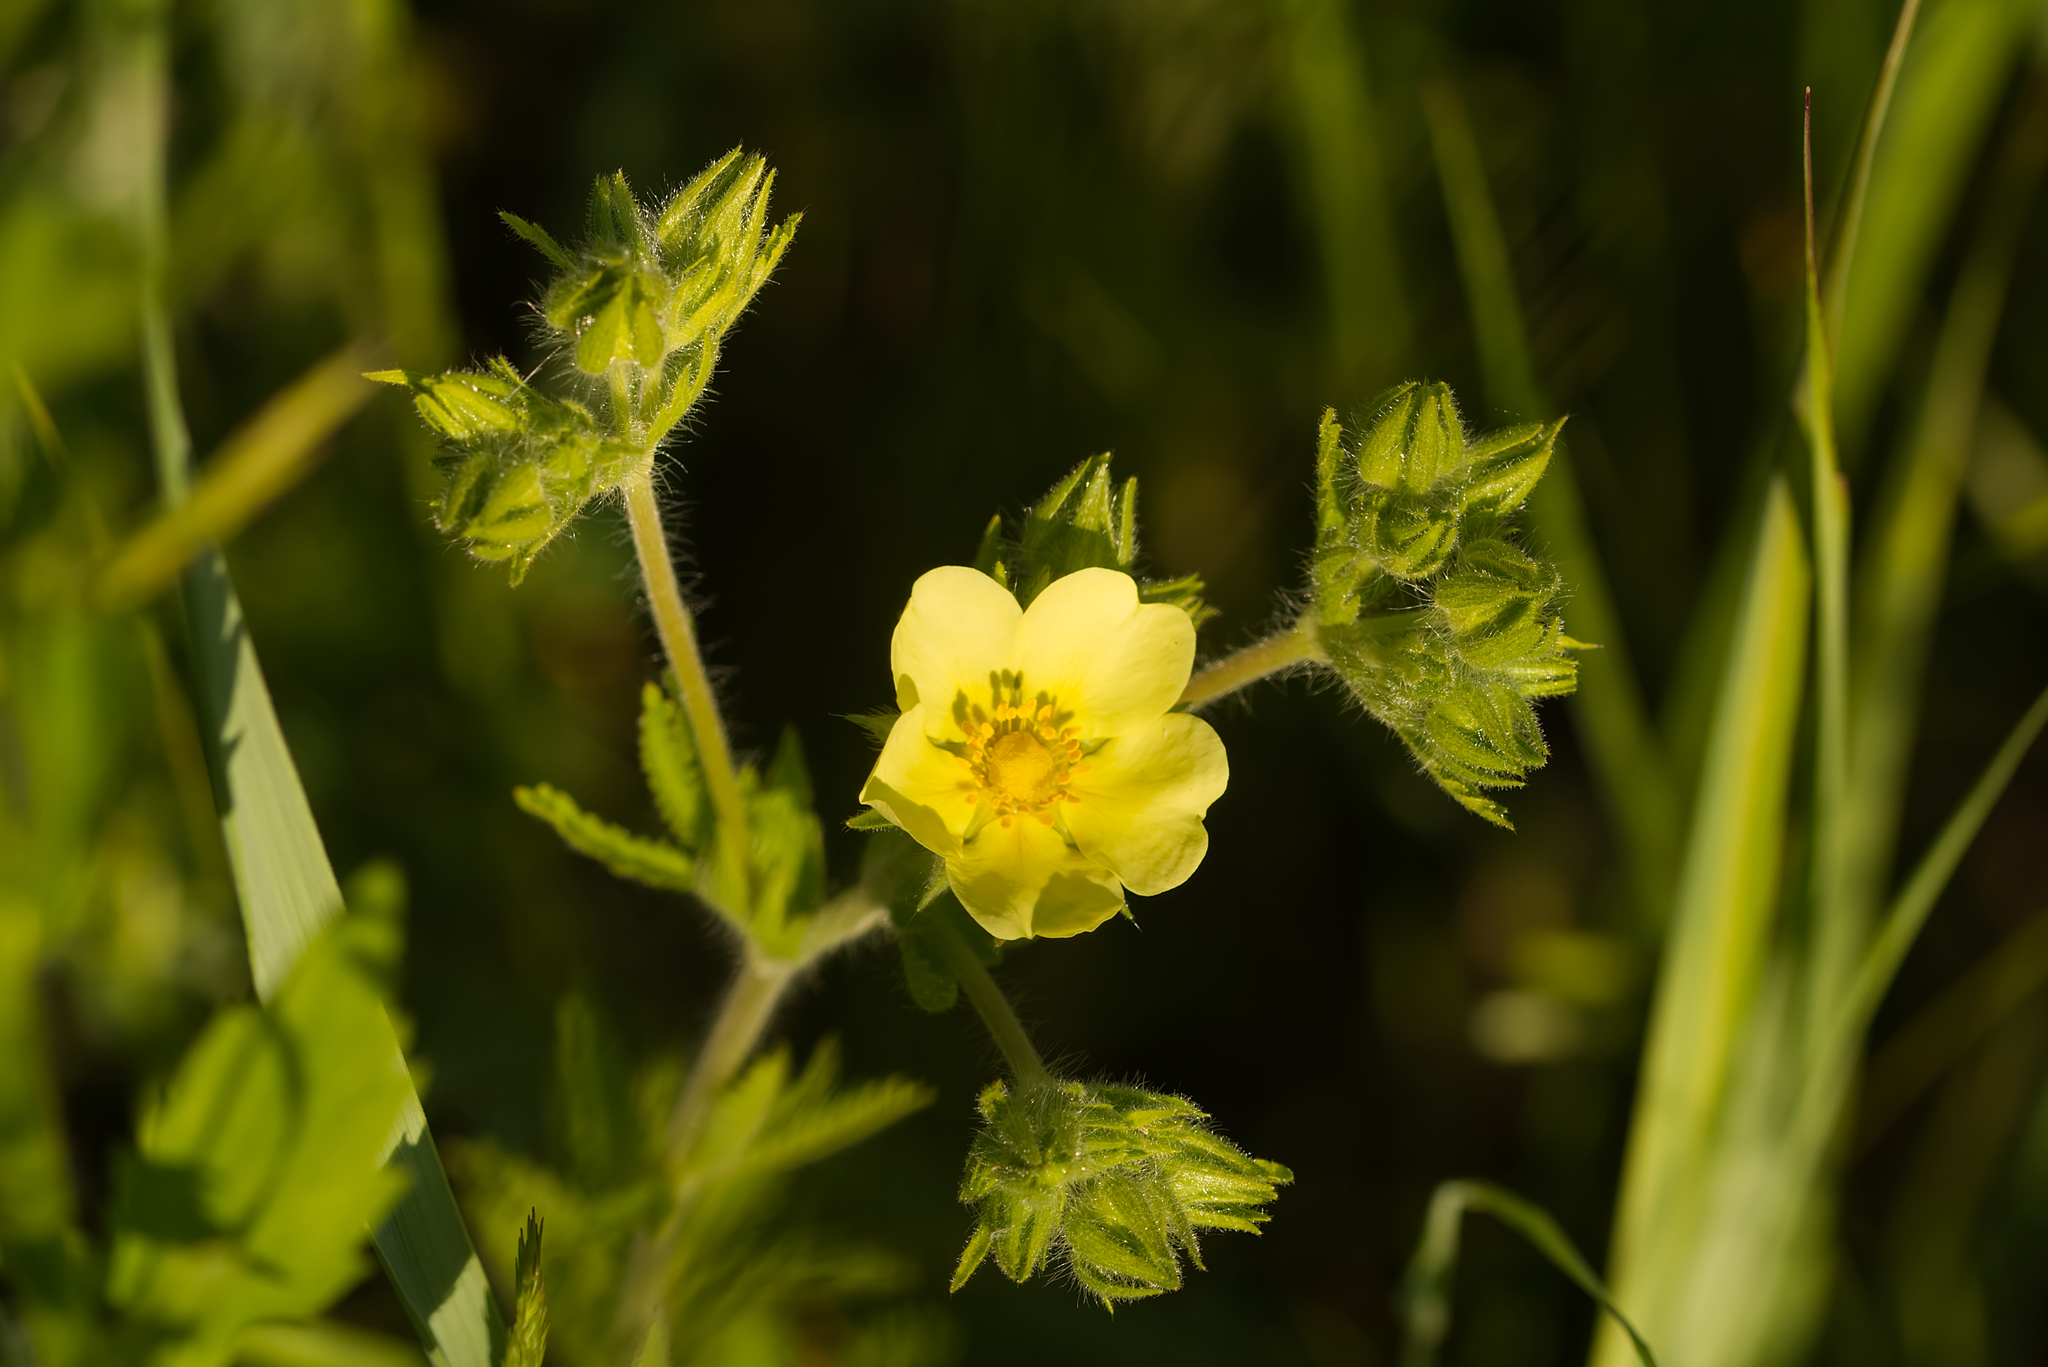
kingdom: Plantae
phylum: Tracheophyta
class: Magnoliopsida
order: Rosales
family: Rosaceae
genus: Potentilla
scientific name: Potentilla recta
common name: Sulphur cinquefoil
